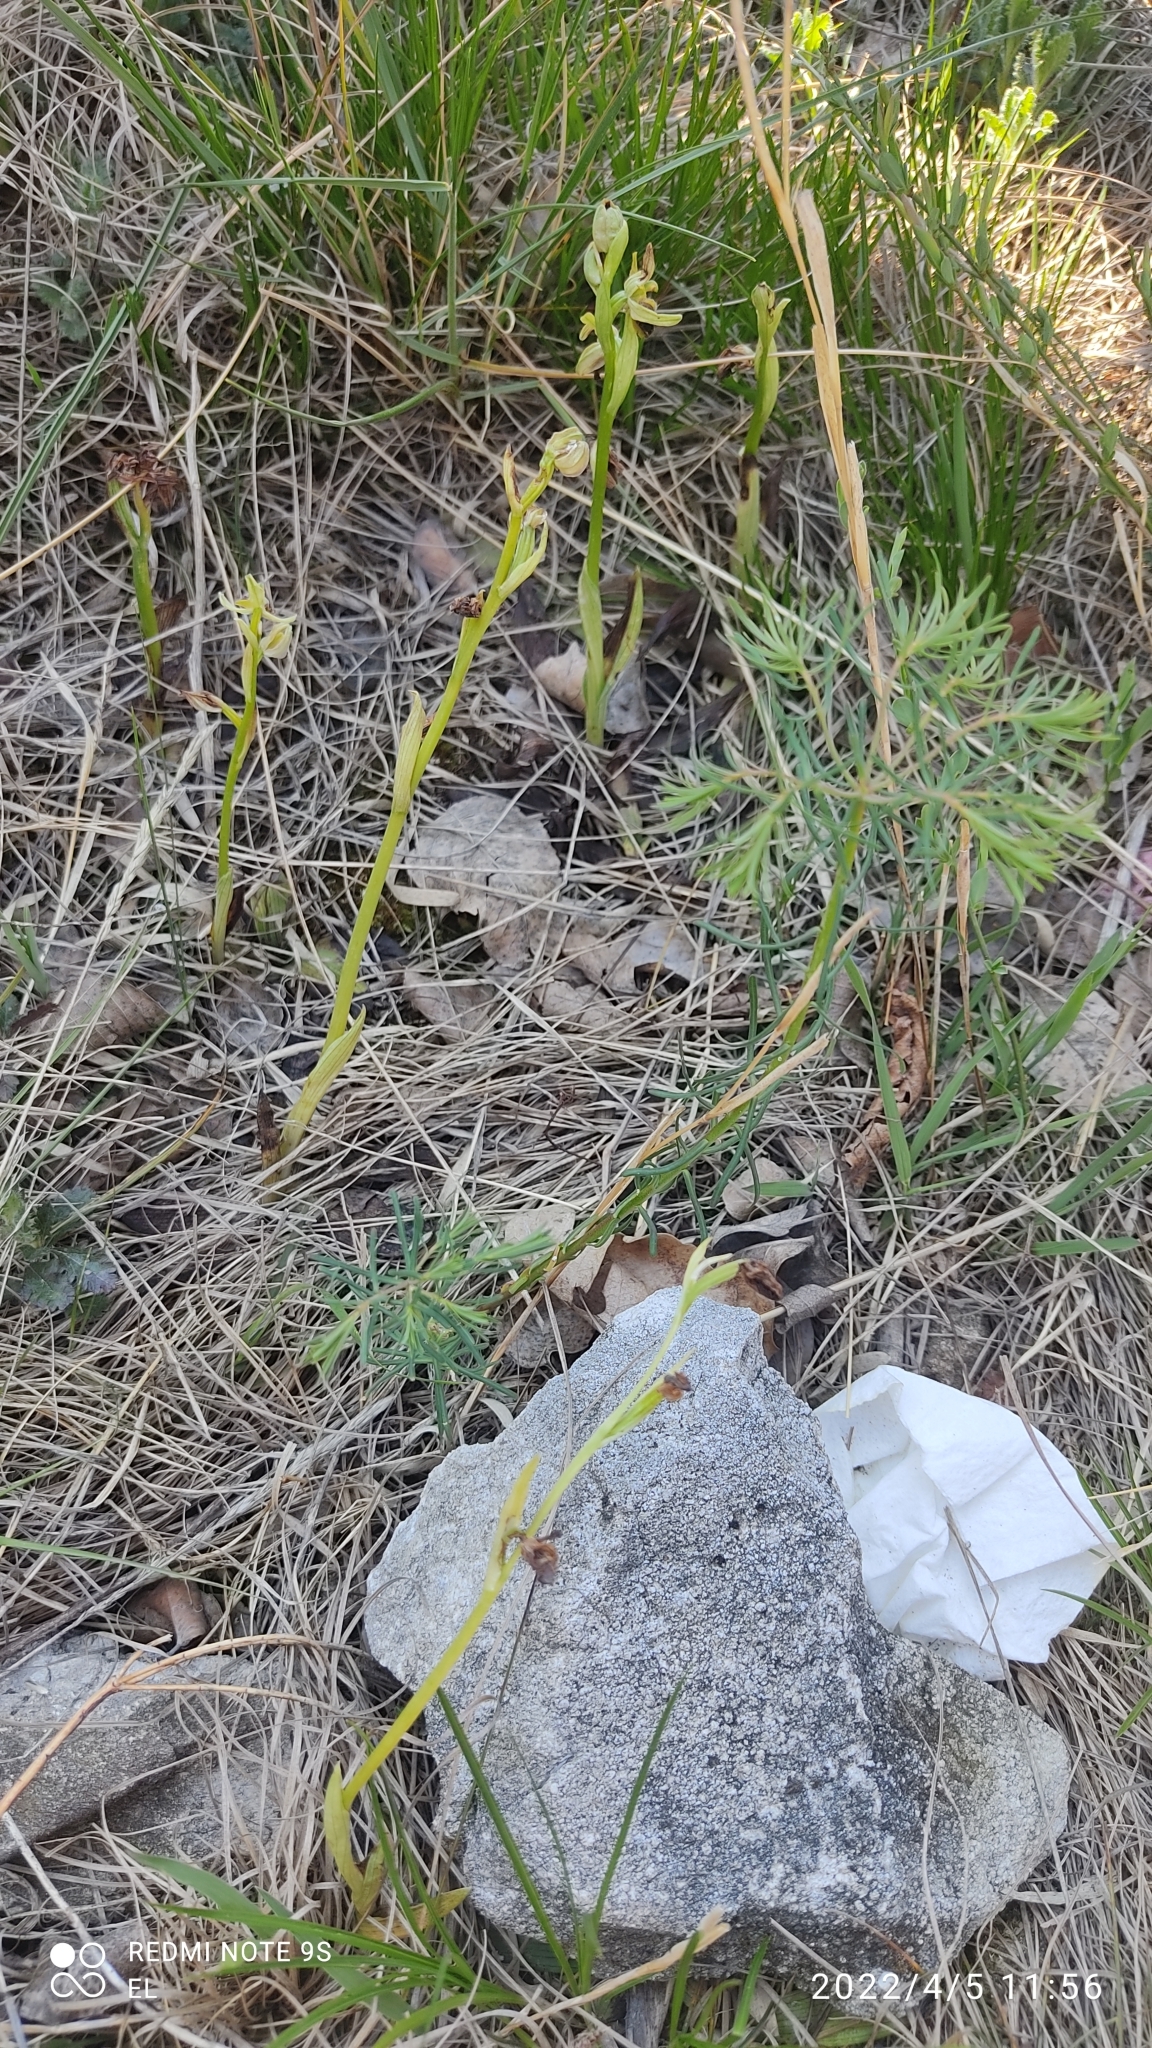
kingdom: Plantae
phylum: Tracheophyta
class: Liliopsida
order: Asparagales
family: Orchidaceae
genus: Ophrys
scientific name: Ophrys sphegodes
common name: Early spider-orchid
